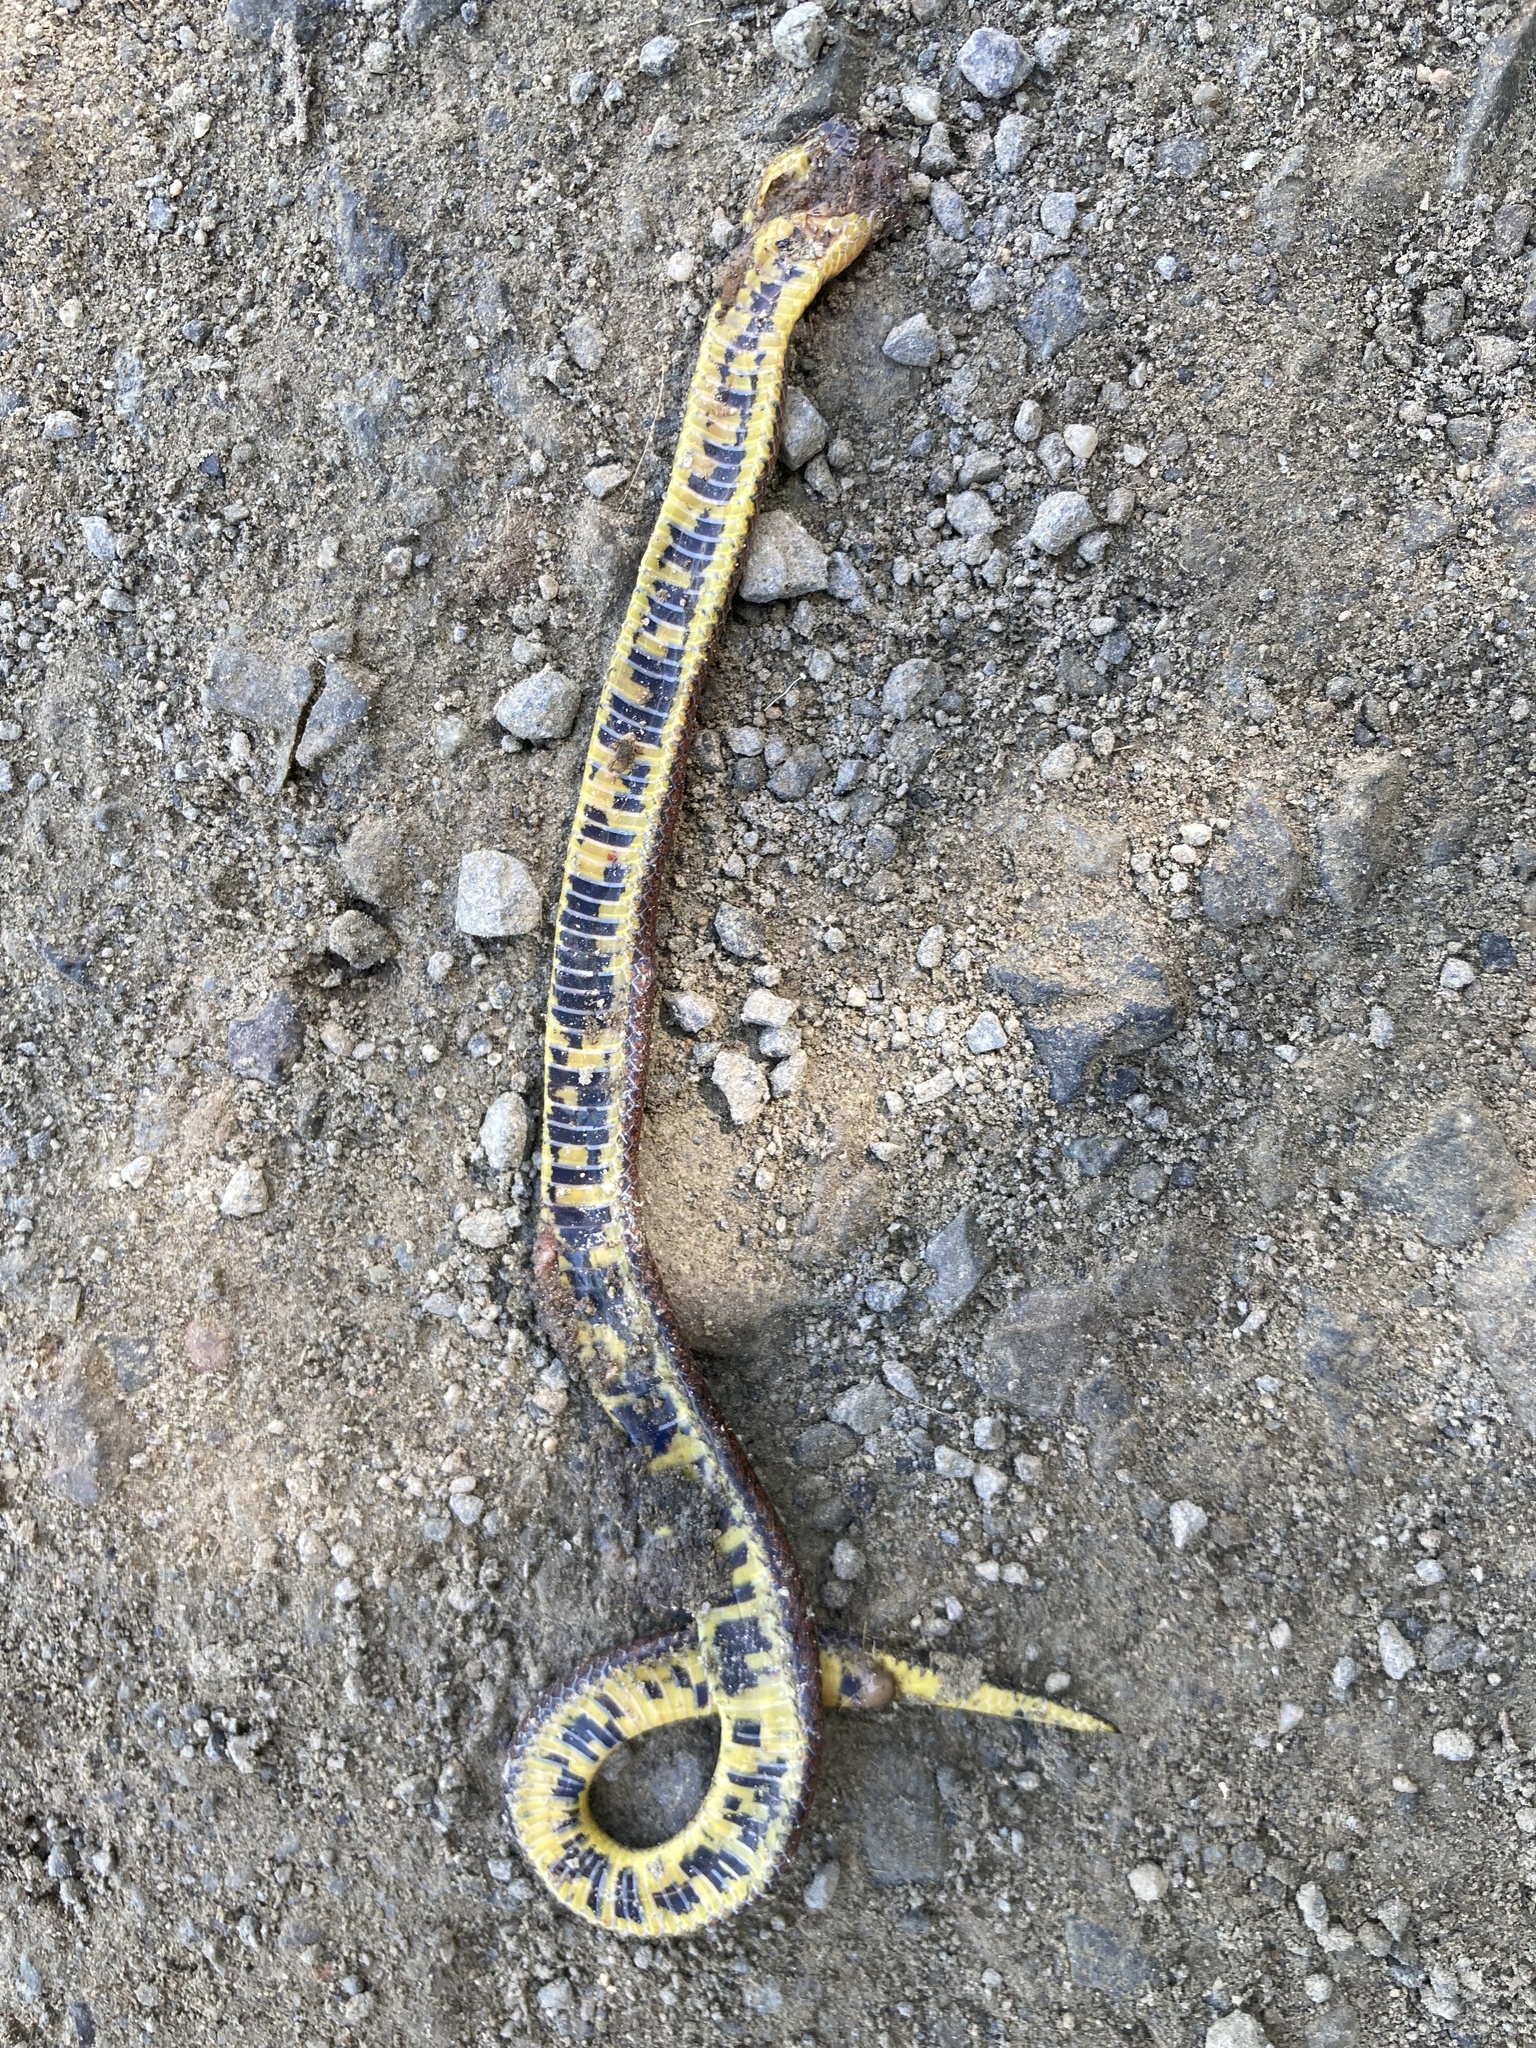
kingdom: Animalia
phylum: Chordata
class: Squamata
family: Colubridae
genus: Atractus
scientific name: Atractus lehmanni
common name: Lehmann's ground snake
